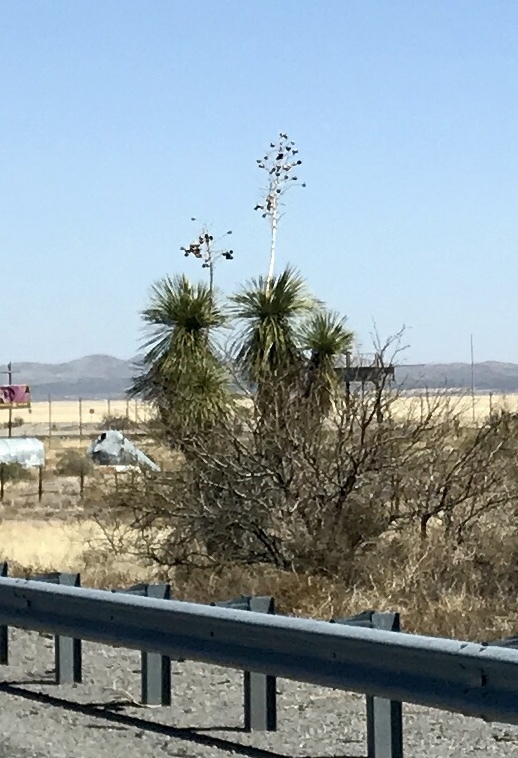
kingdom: Plantae
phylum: Tracheophyta
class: Liliopsida
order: Asparagales
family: Asparagaceae
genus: Yucca
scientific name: Yucca elata
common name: Palmella
